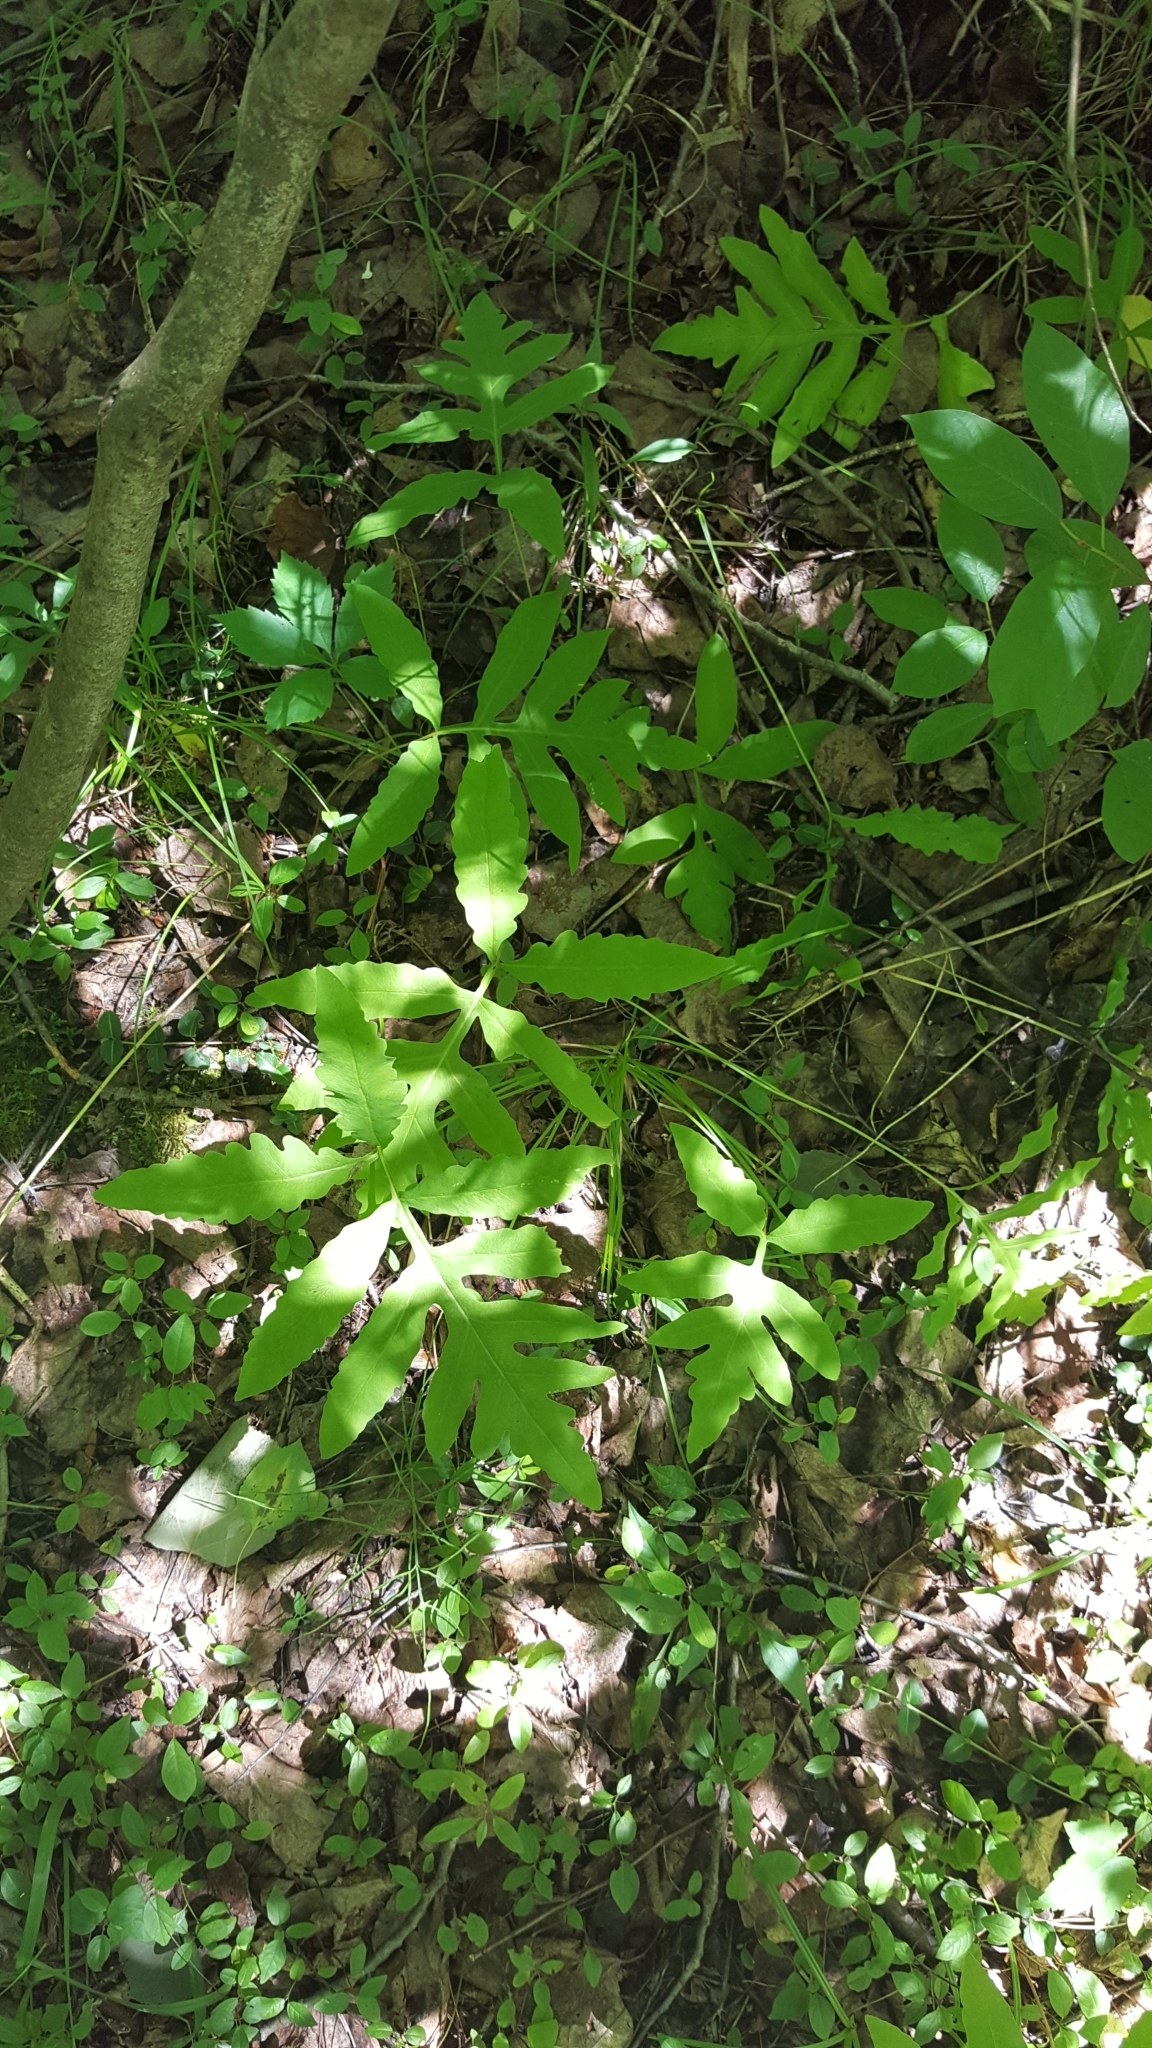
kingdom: Plantae
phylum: Tracheophyta
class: Polypodiopsida
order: Polypodiales
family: Onocleaceae
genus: Onoclea
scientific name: Onoclea sensibilis
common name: Sensitive fern
